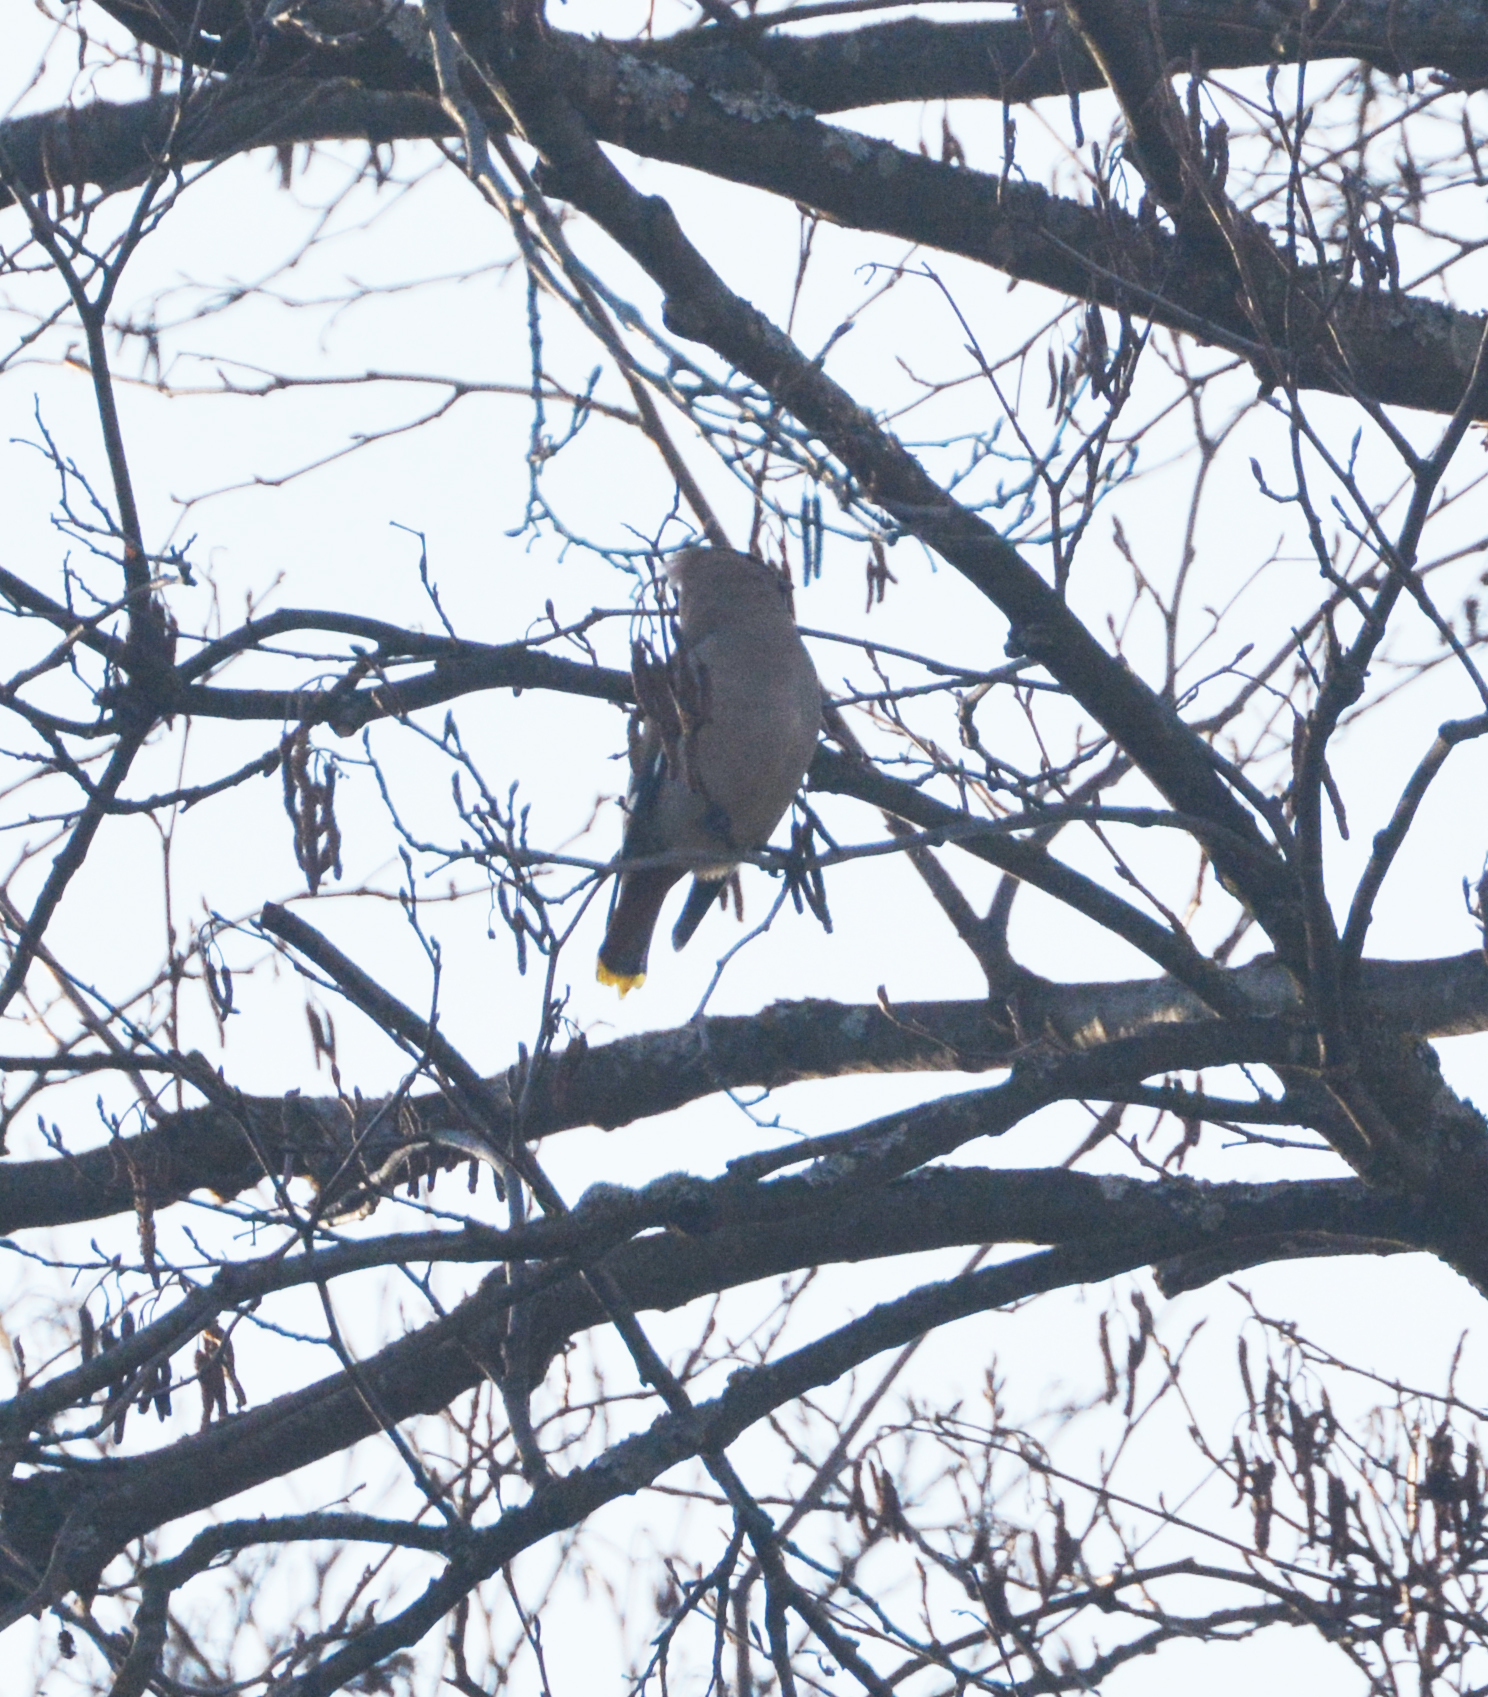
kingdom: Animalia
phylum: Chordata
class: Aves
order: Passeriformes
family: Bombycillidae
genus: Bombycilla
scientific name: Bombycilla garrulus
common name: Bohemian waxwing
